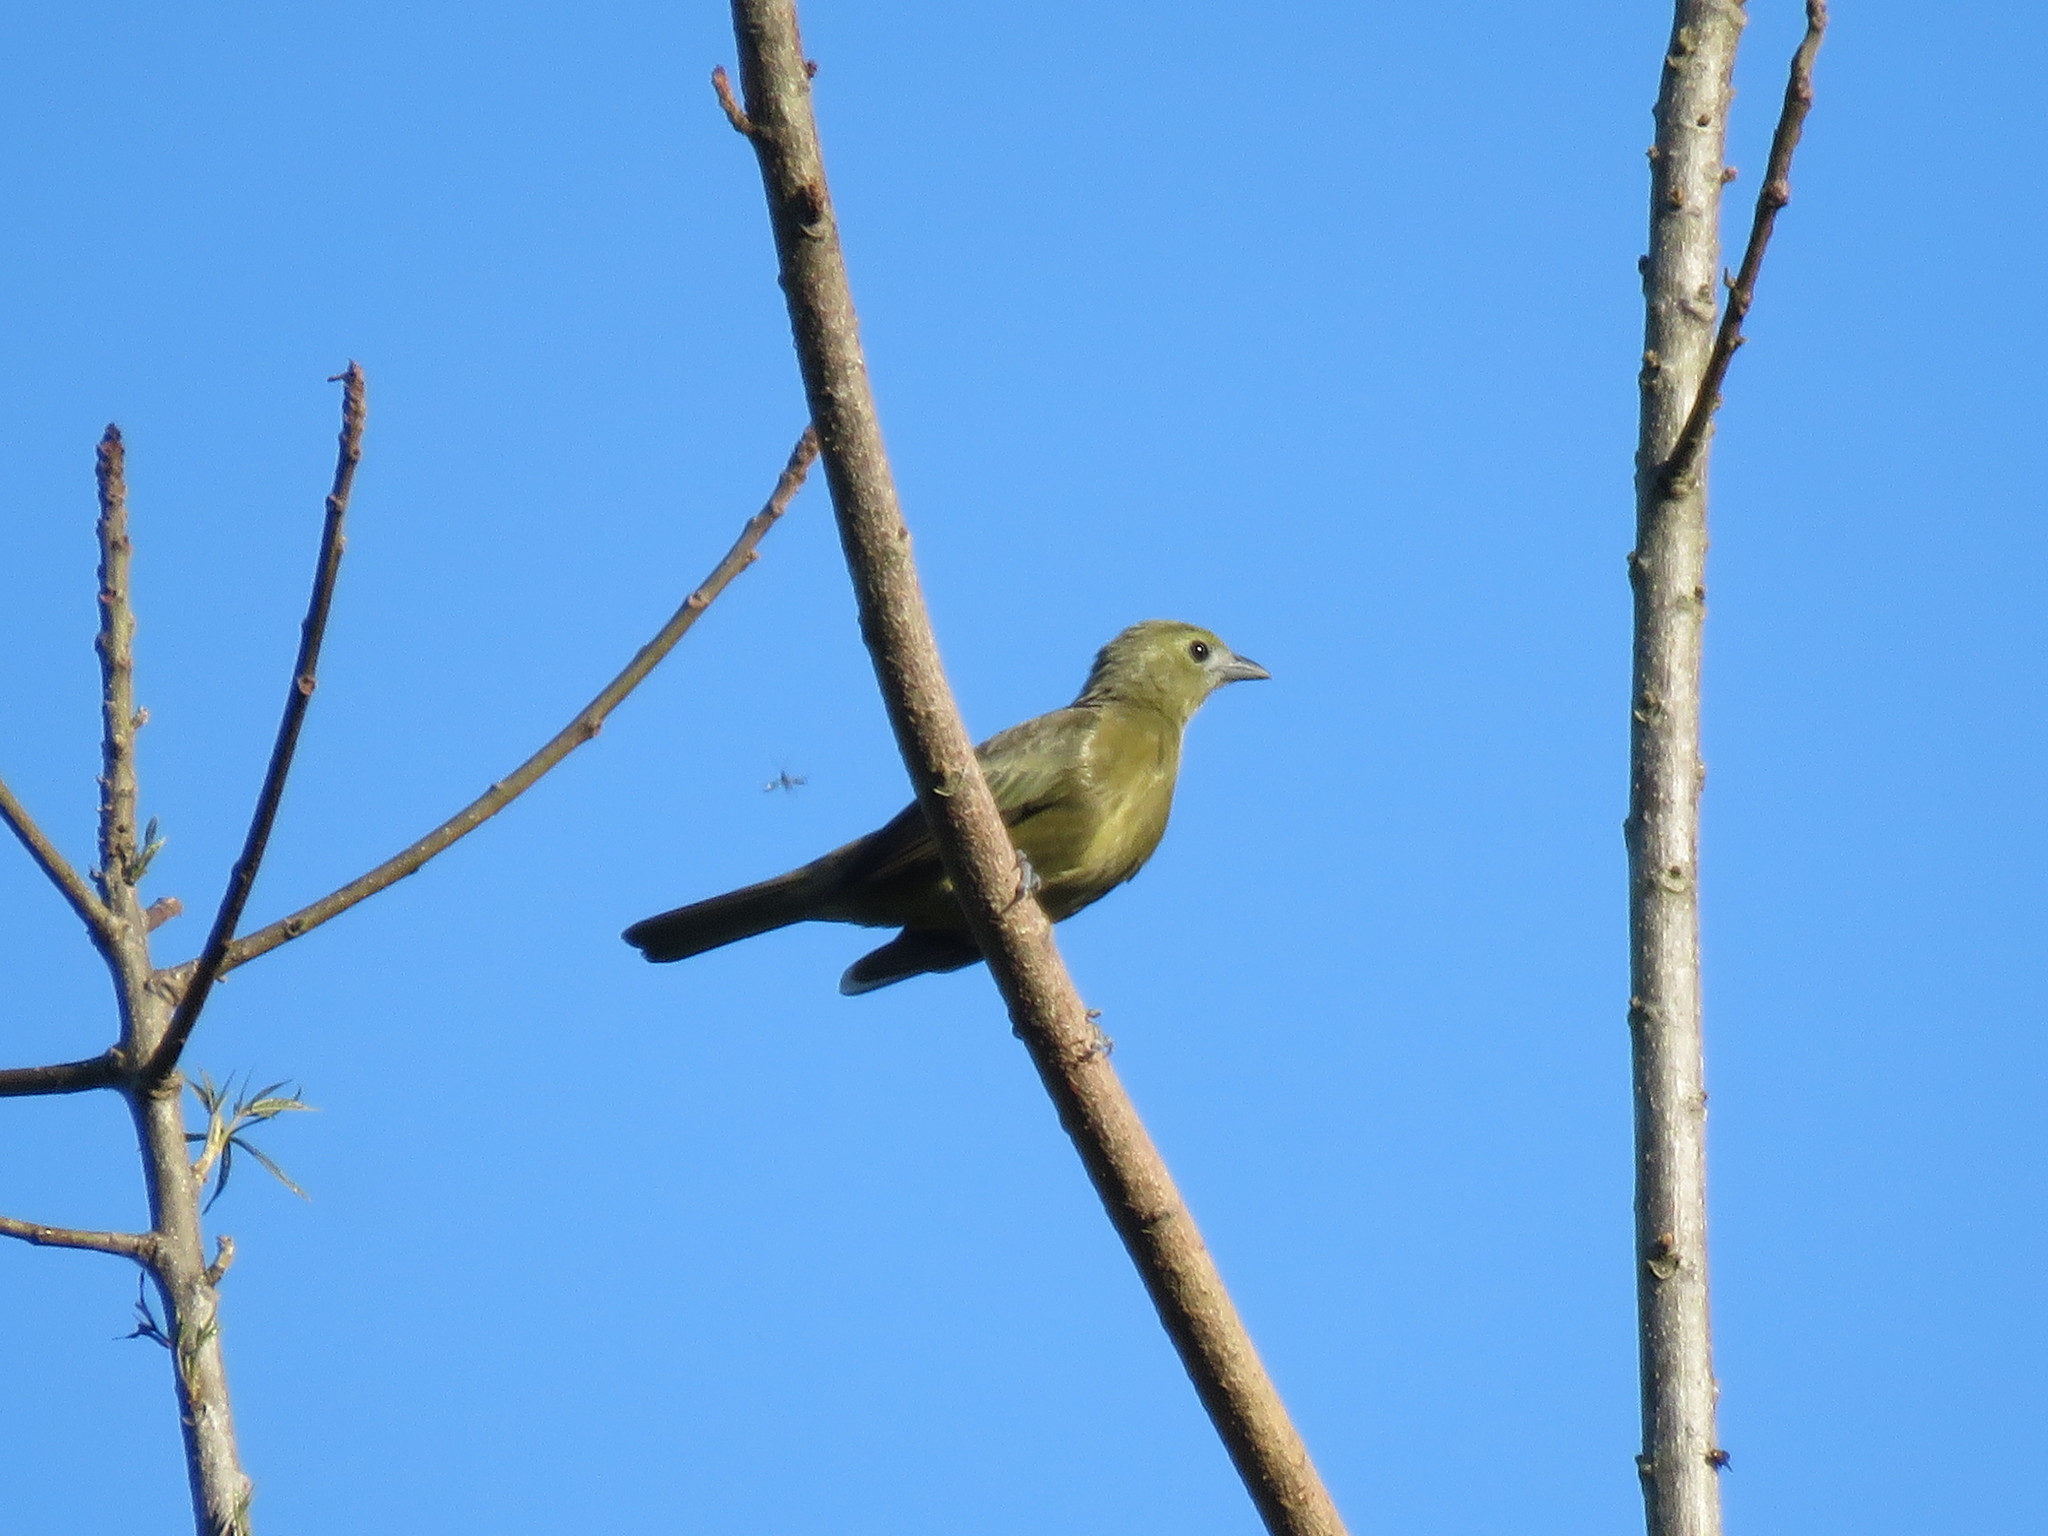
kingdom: Animalia
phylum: Chordata
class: Aves
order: Passeriformes
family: Thraupidae
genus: Thraupis
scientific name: Thraupis palmarum
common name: Palm tanager
